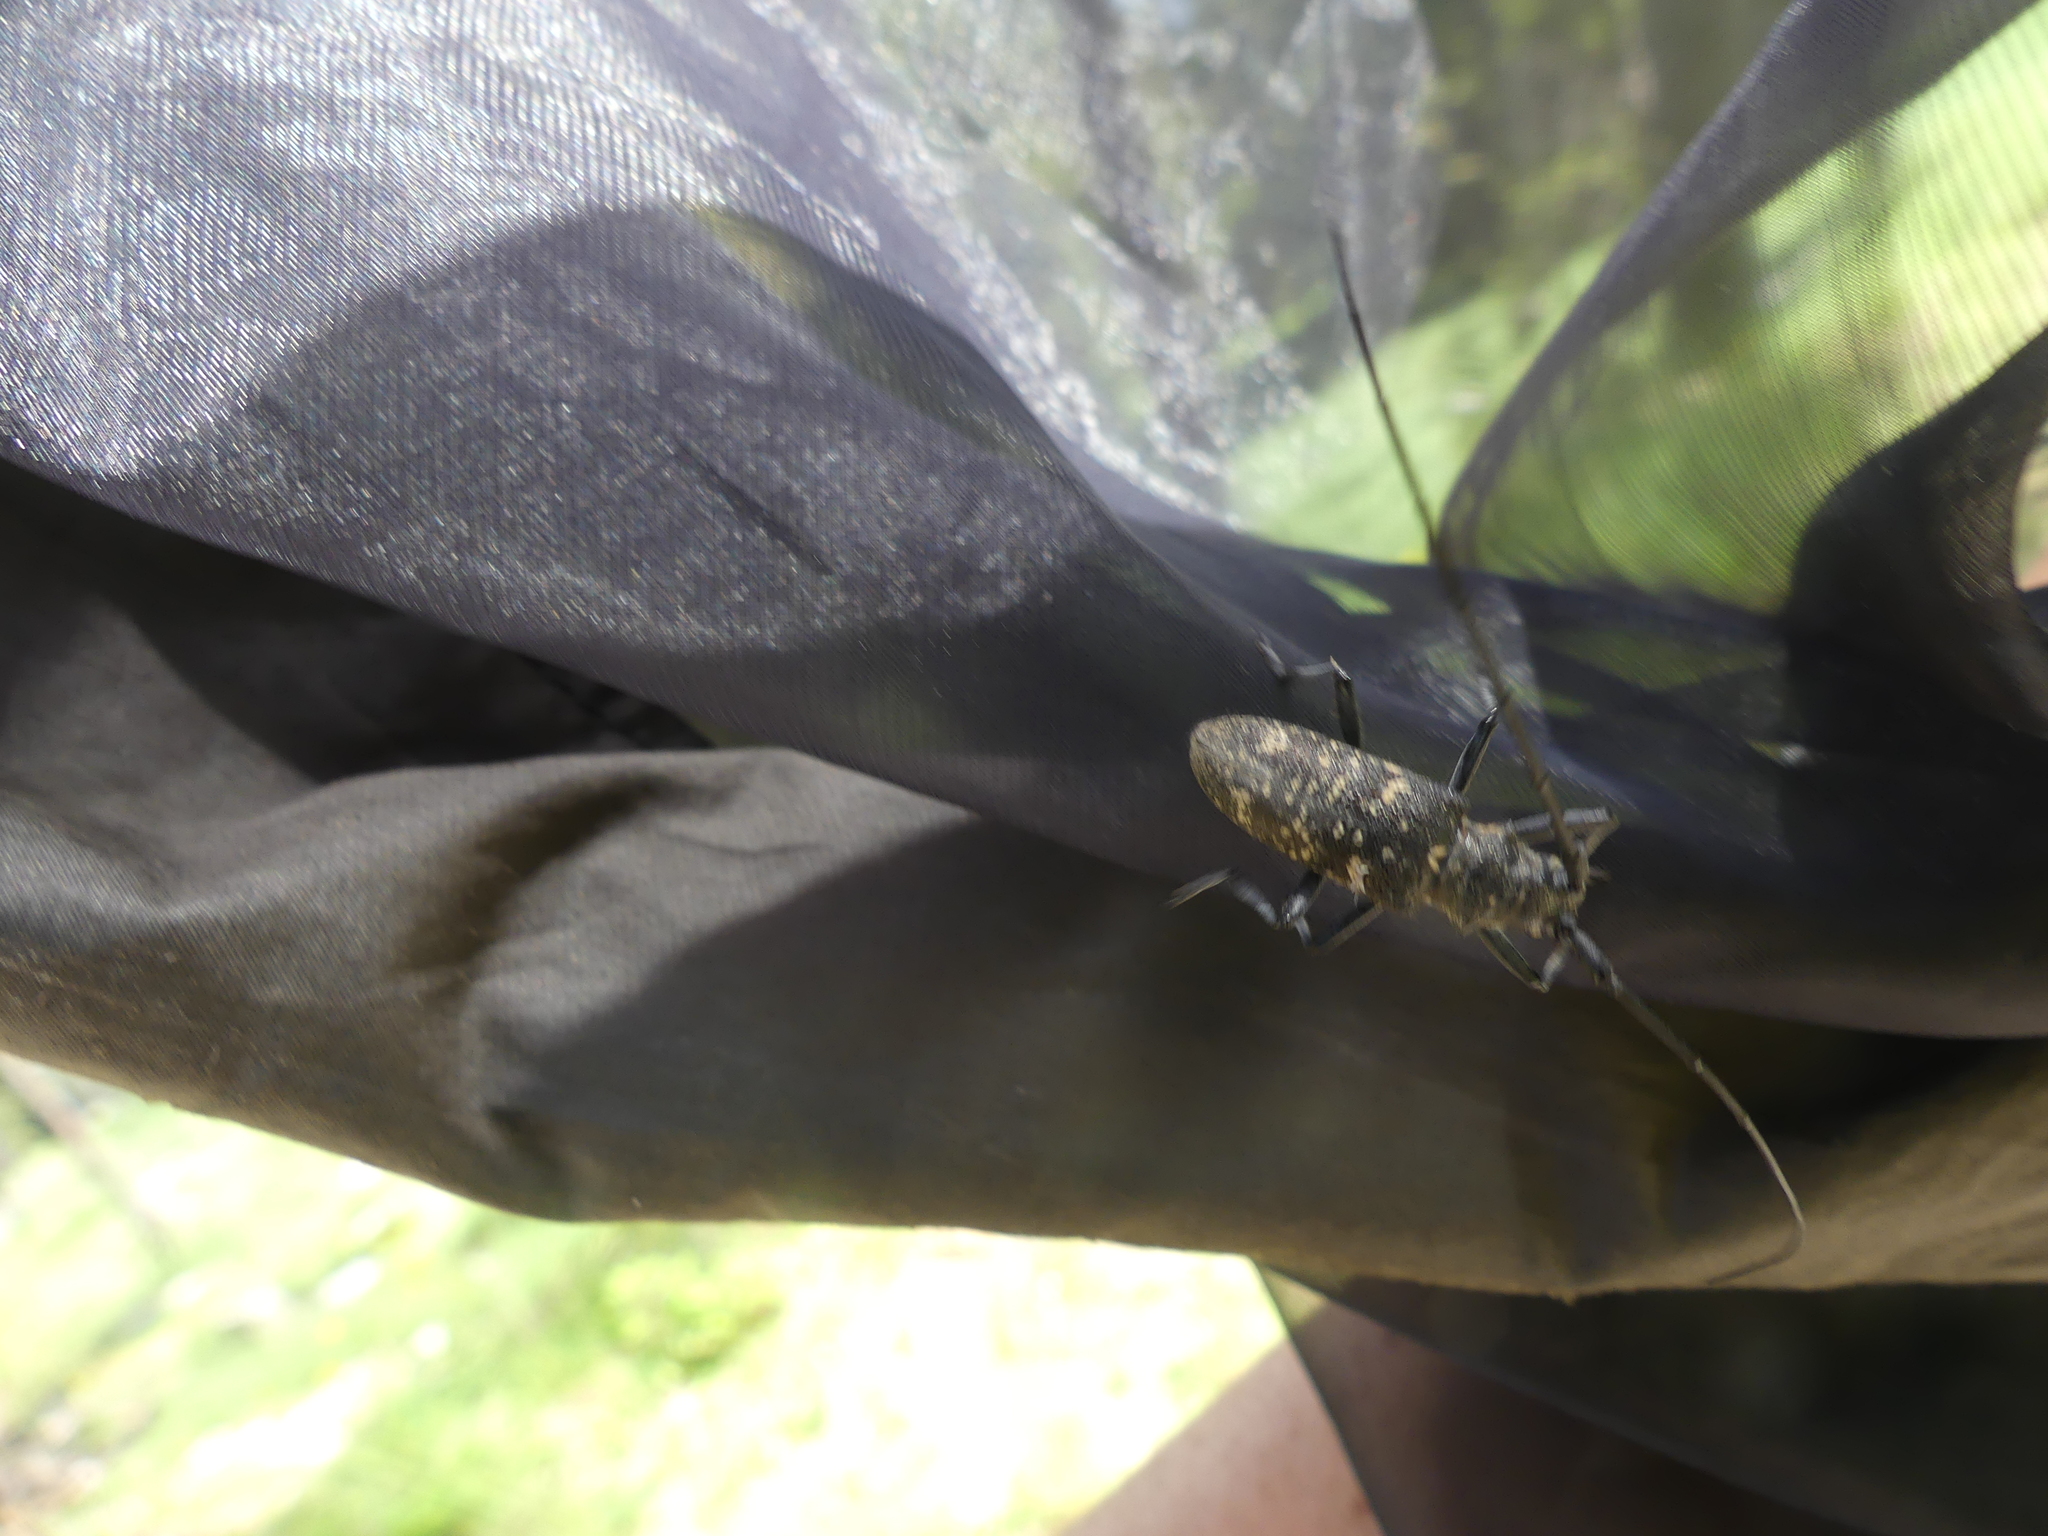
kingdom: Animalia
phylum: Arthropoda
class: Insecta
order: Coleoptera
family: Cerambycidae
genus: Monochamus
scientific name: Monochamus sutor
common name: Pine sawyer
